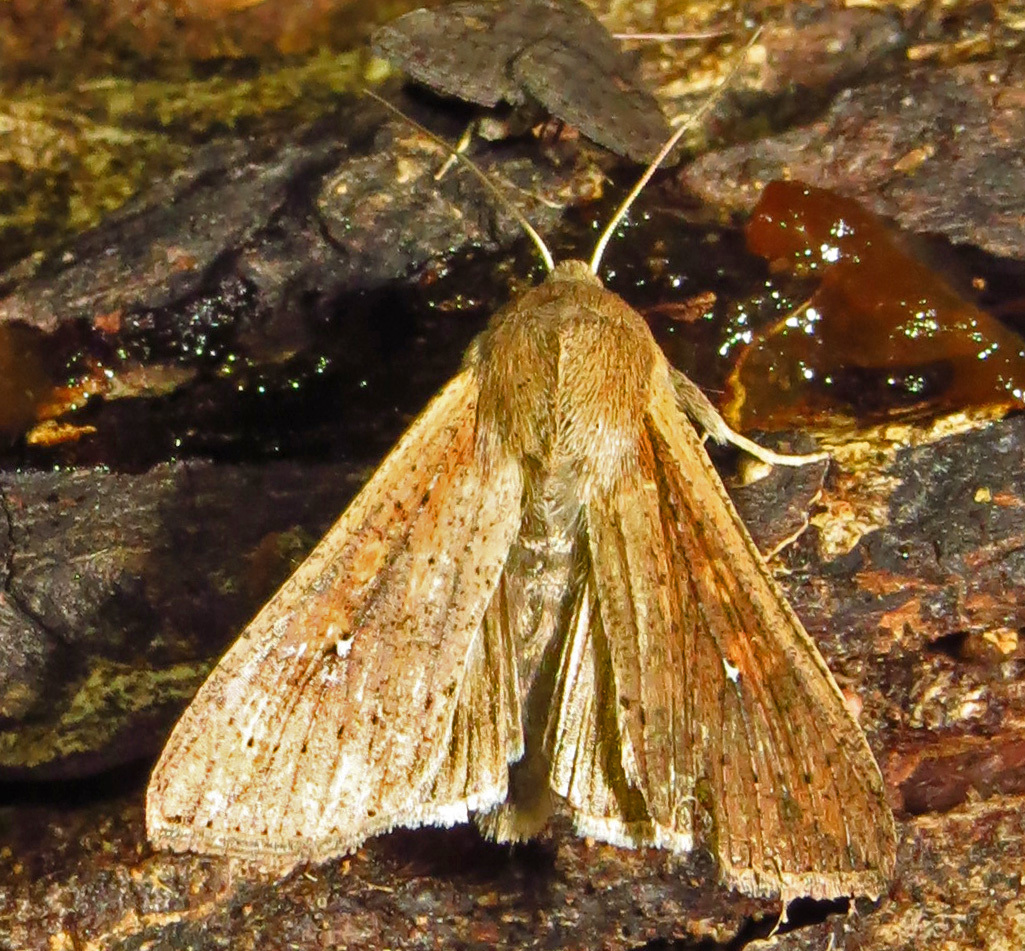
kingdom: Animalia
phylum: Arthropoda
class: Insecta
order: Lepidoptera
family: Noctuidae
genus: Mythimna
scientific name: Mythimna unipuncta
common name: White-speck
